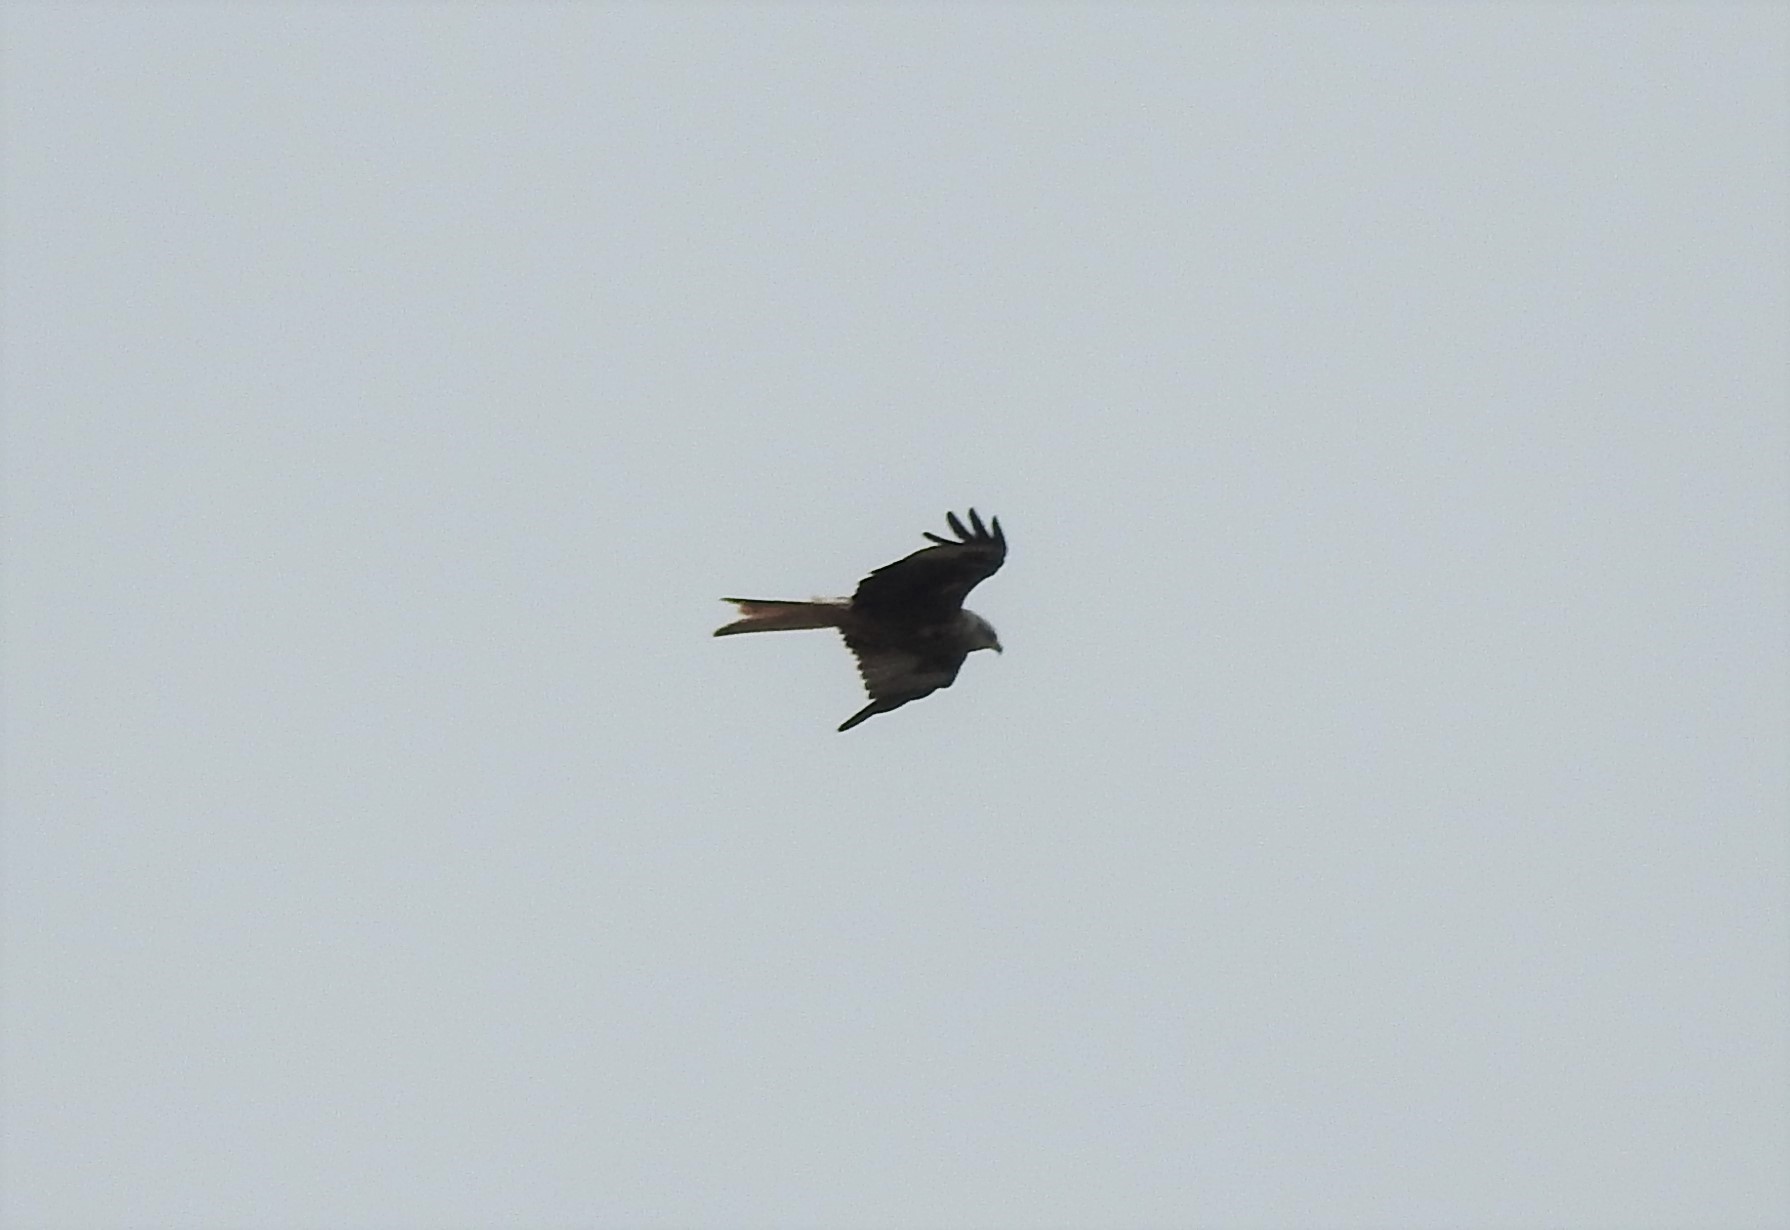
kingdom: Animalia
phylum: Chordata
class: Aves
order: Accipitriformes
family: Accipitridae
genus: Milvus
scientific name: Milvus milvus
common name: Red kite
